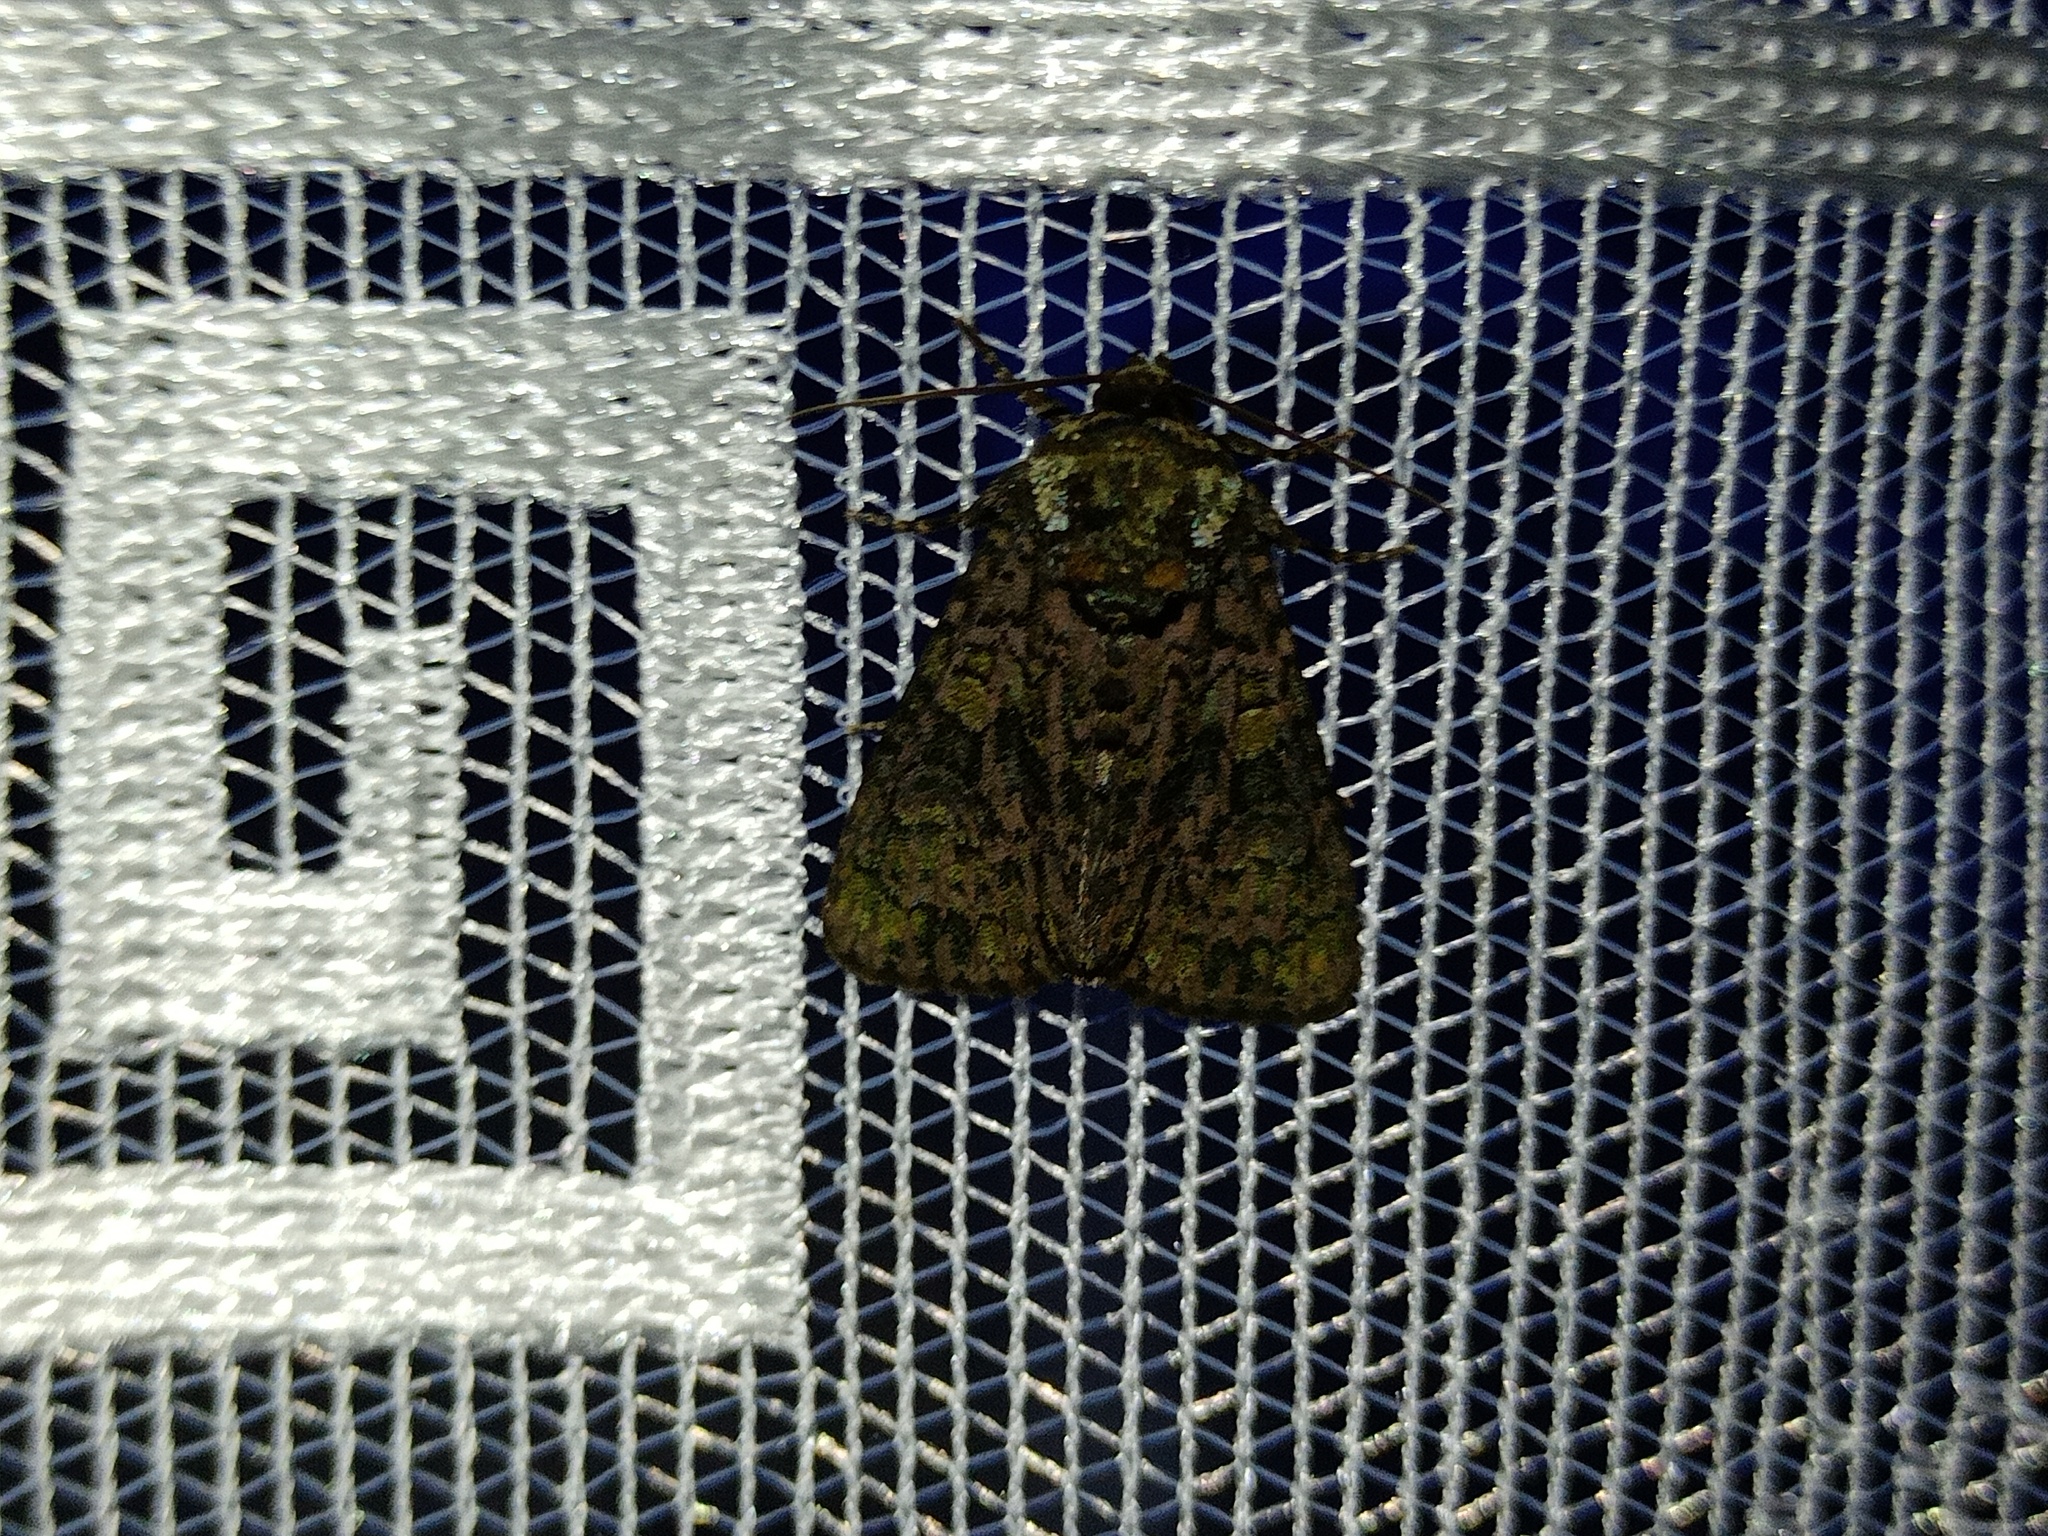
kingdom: Animalia
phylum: Arthropoda
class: Insecta
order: Lepidoptera
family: Noctuidae
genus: Craniophora
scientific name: Craniophora ligustri
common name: Coronet
